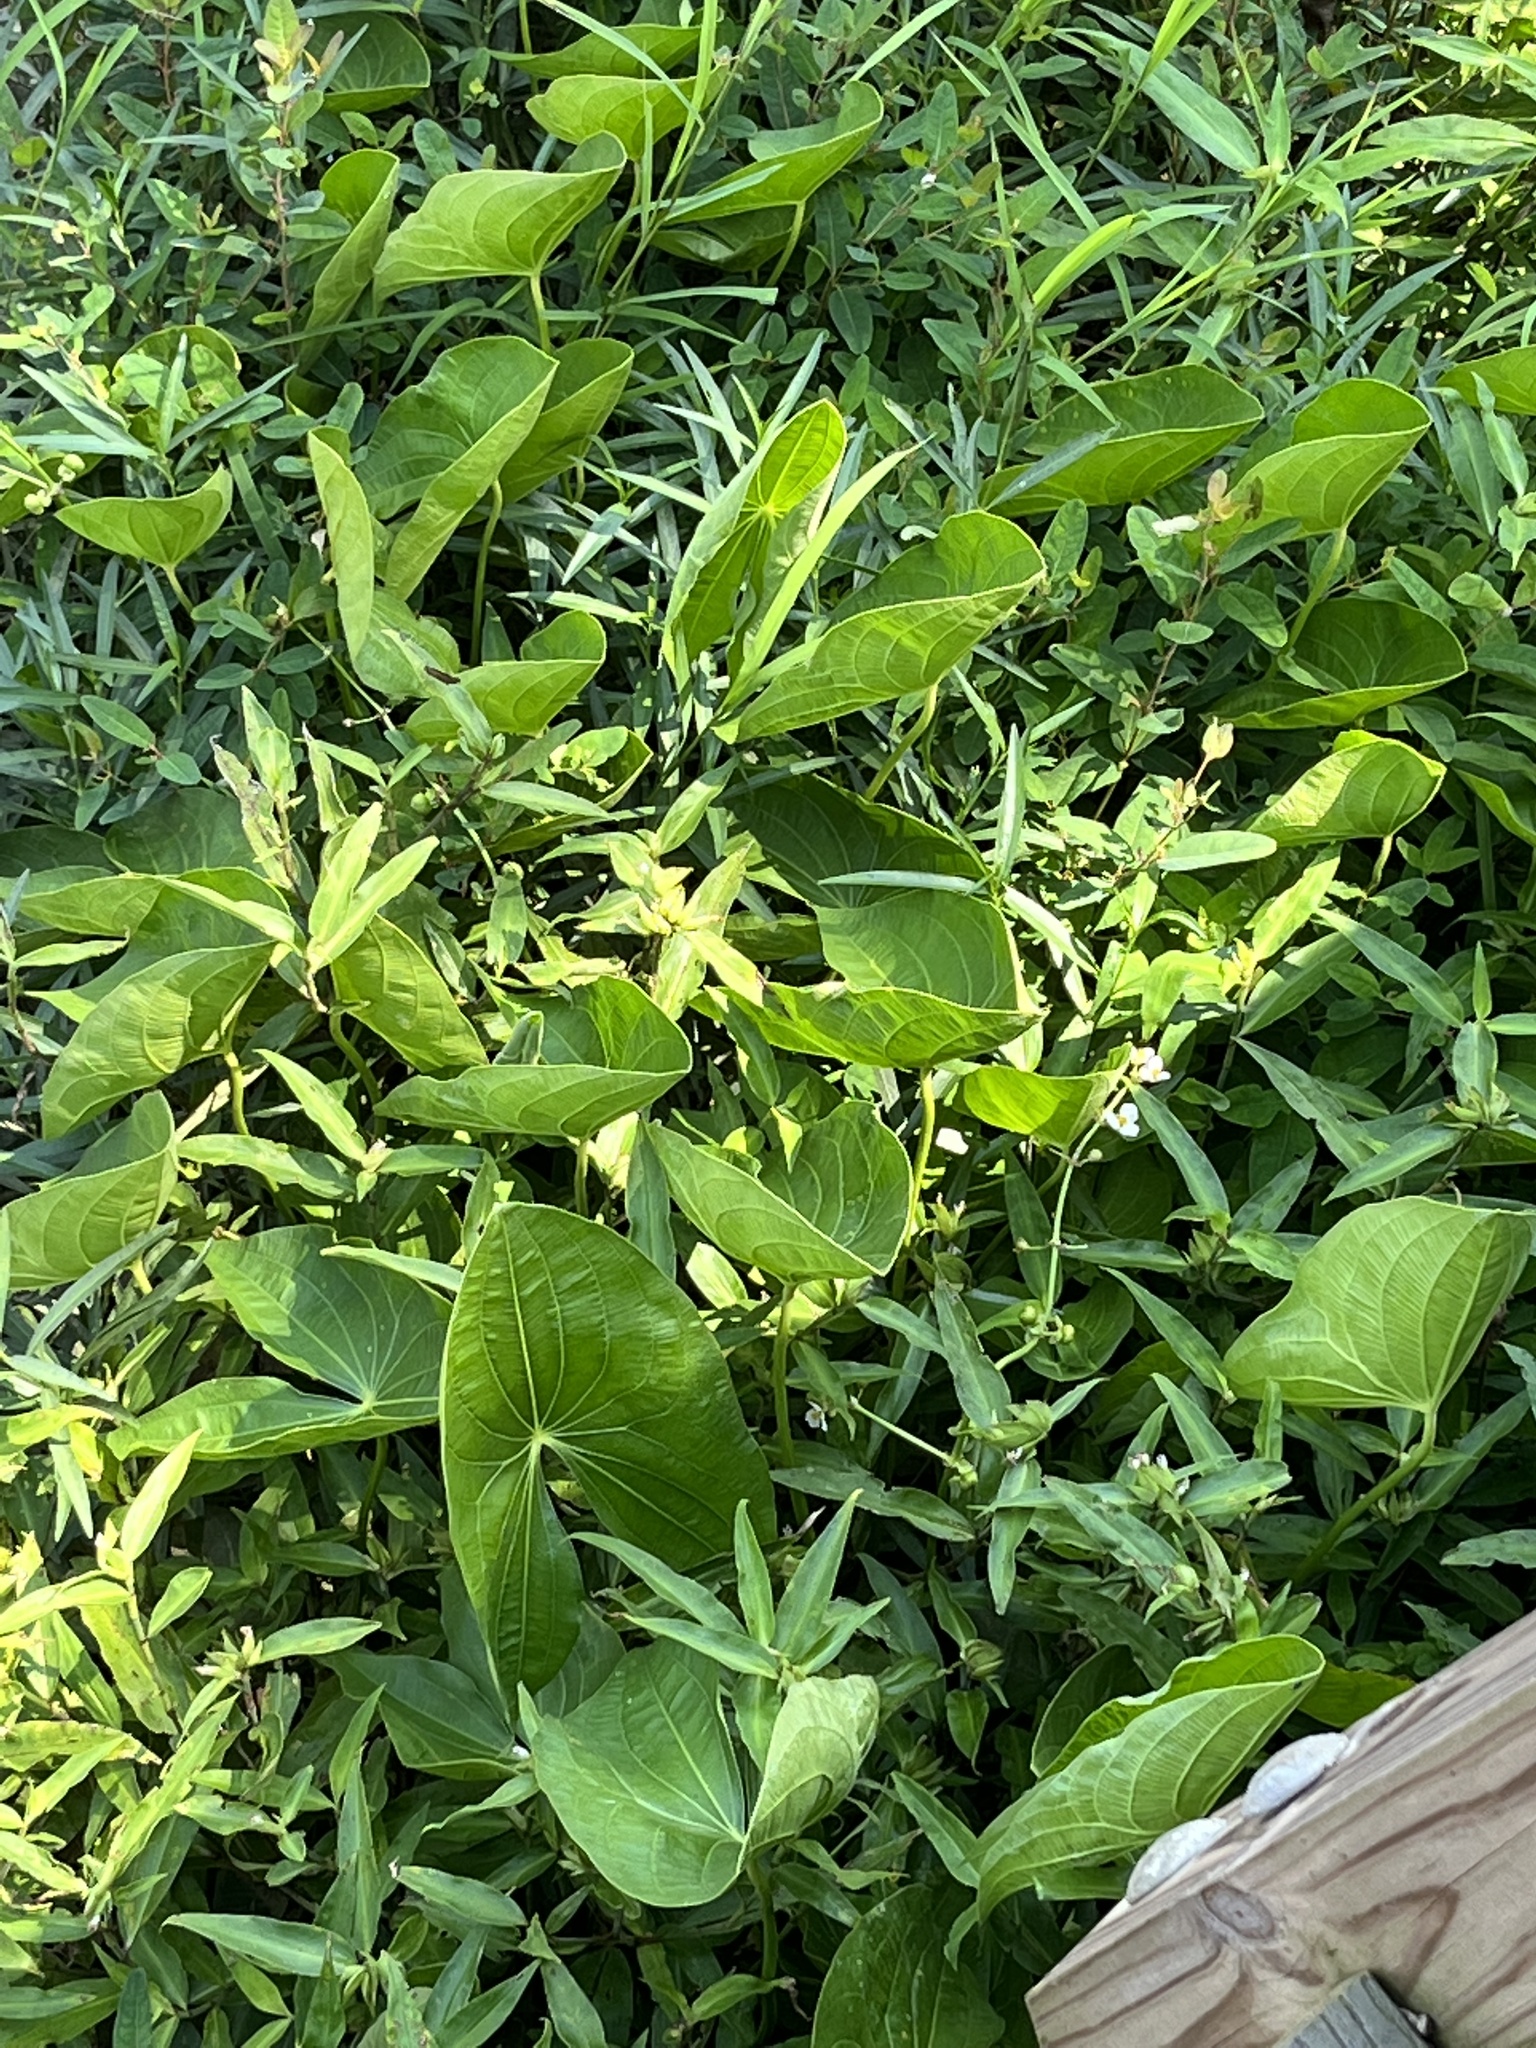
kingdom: Plantae
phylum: Tracheophyta
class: Liliopsida
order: Alismatales
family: Alismataceae
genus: Sagittaria
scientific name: Sagittaria latifolia
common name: Duck-potato
